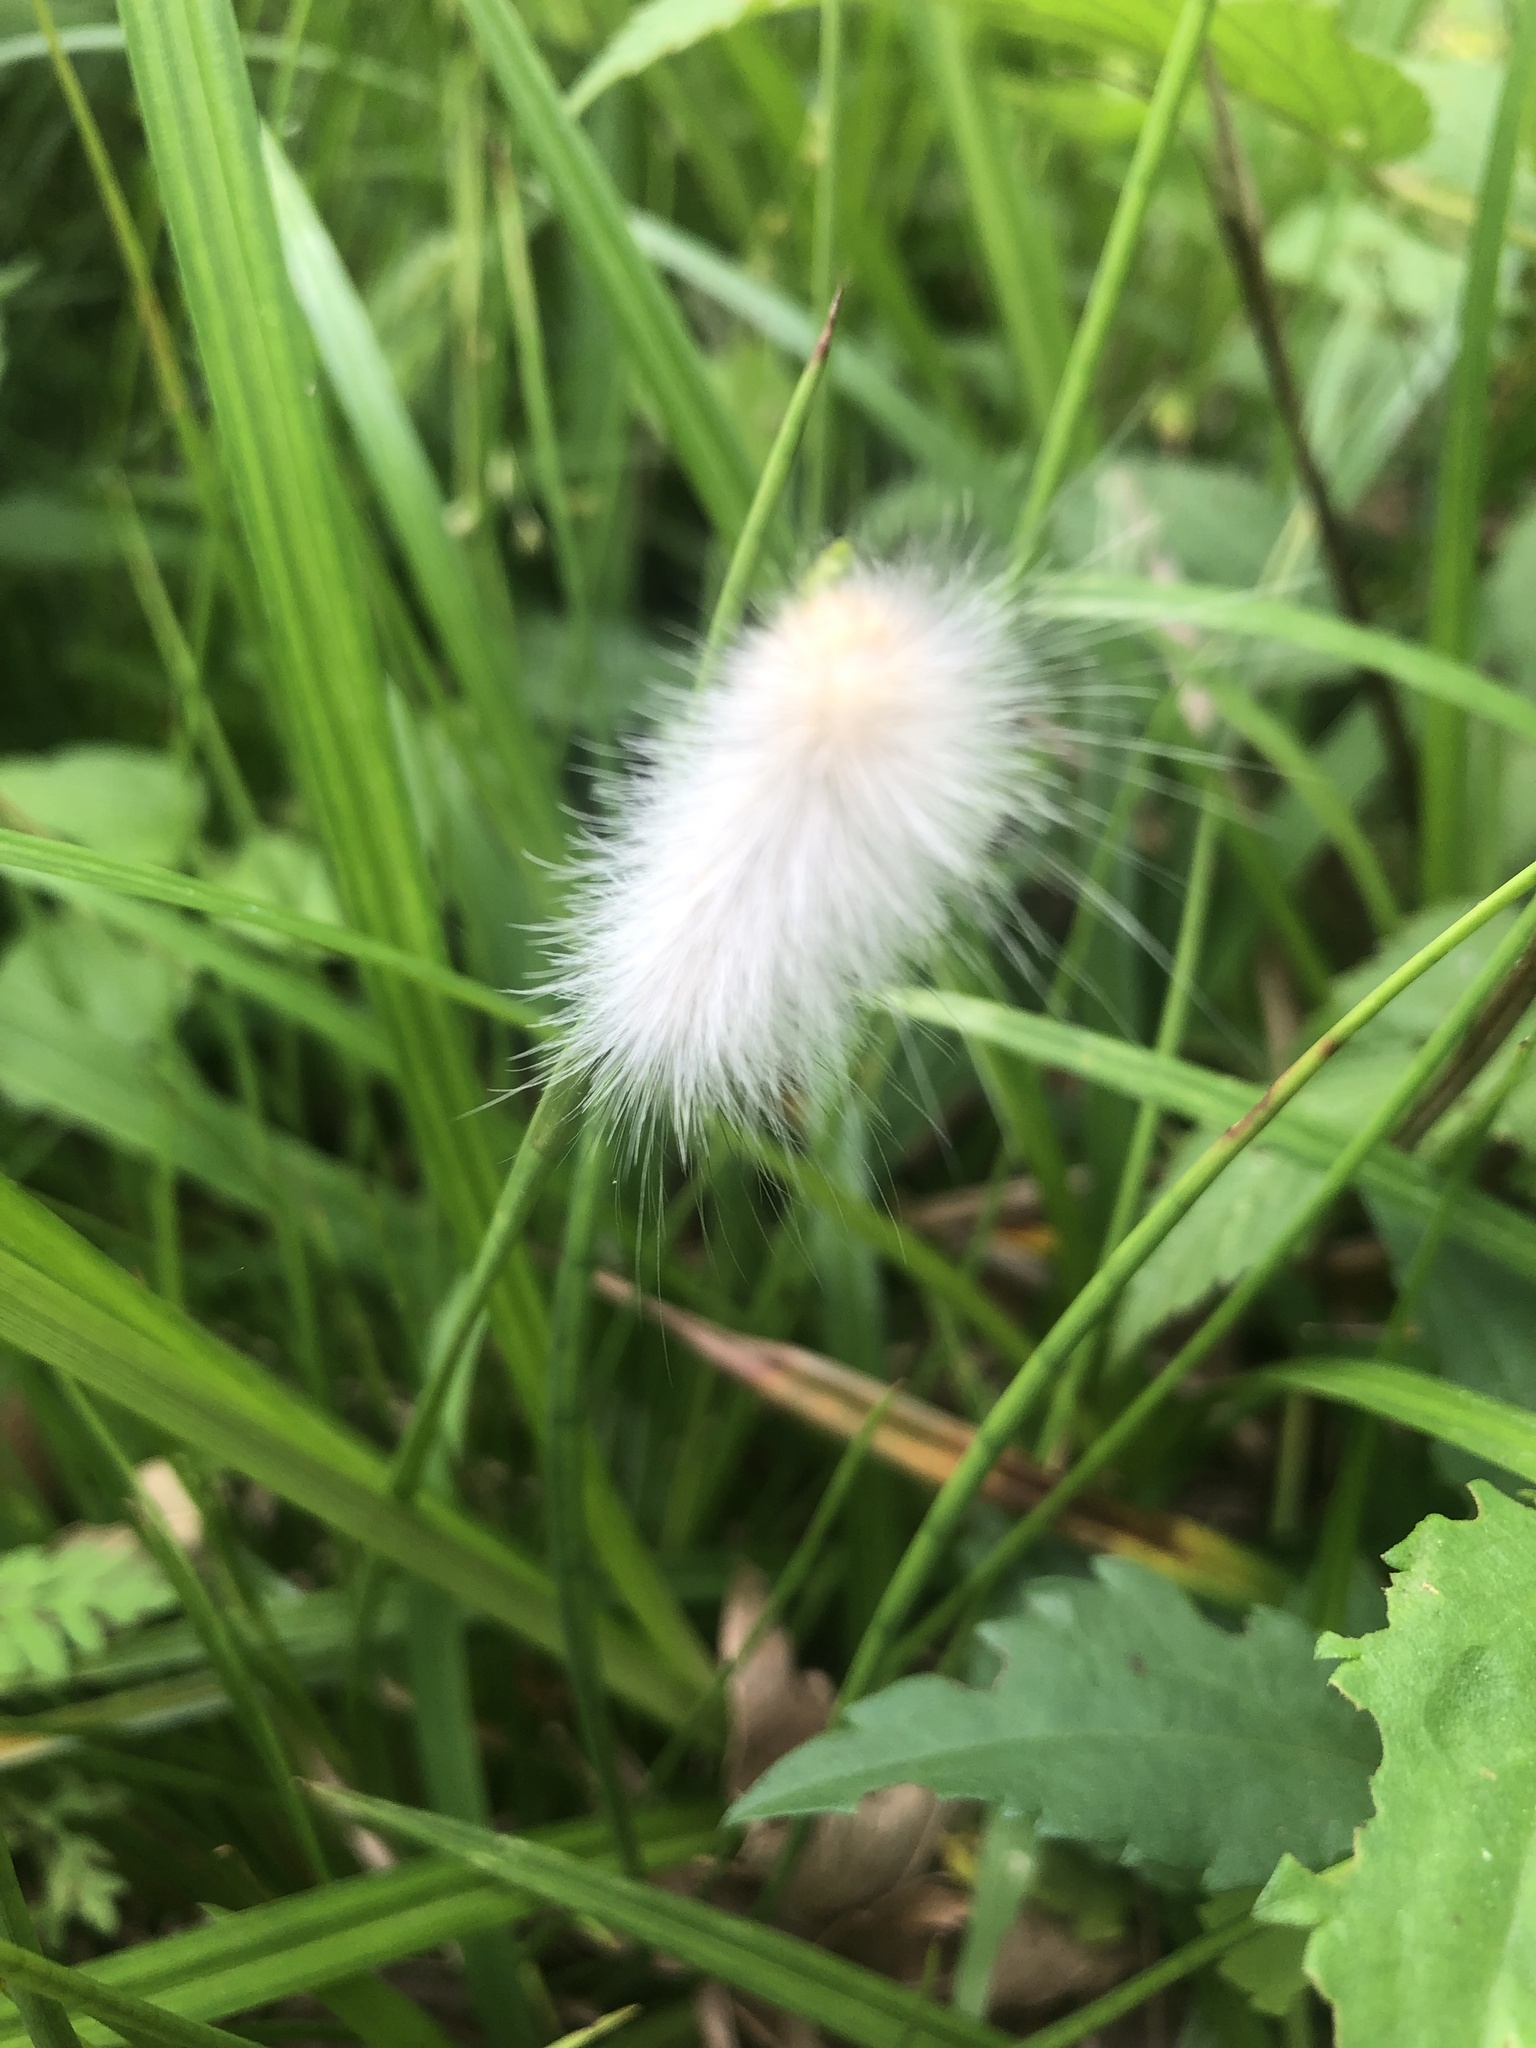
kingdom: Animalia
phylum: Arthropoda
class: Insecta
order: Lepidoptera
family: Erebidae
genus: Spilosoma
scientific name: Spilosoma virginica
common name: Virginia tiger moth
